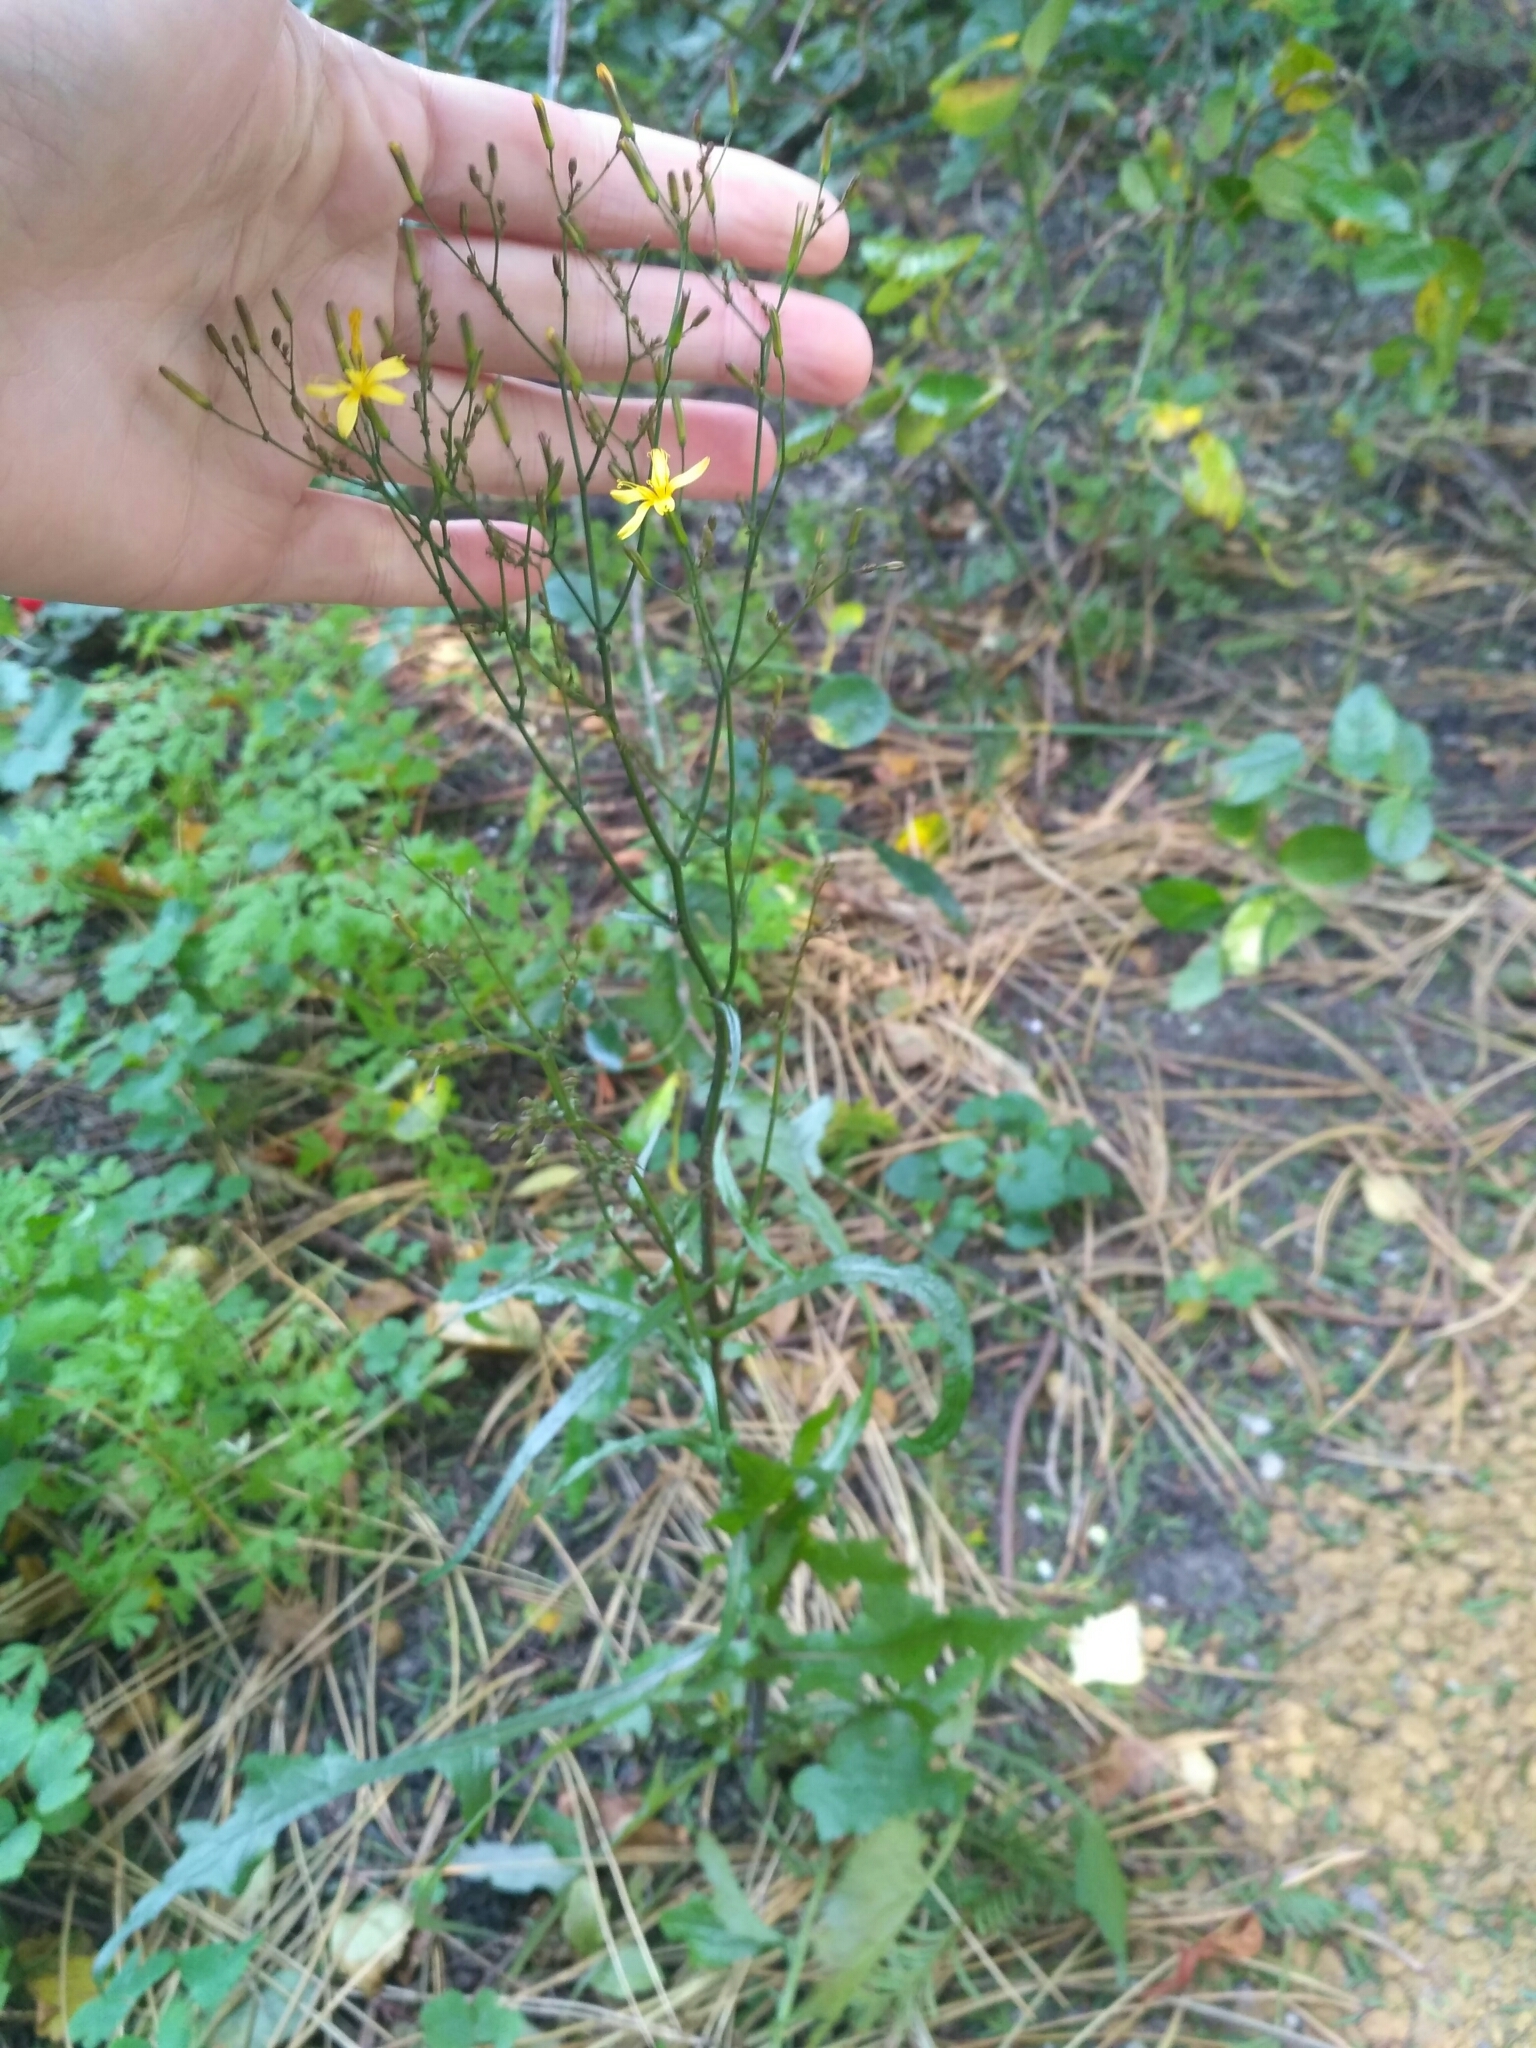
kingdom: Plantae
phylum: Tracheophyta
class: Magnoliopsida
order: Asterales
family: Asteraceae
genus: Mycelis
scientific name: Mycelis muralis
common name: Wall lettuce
